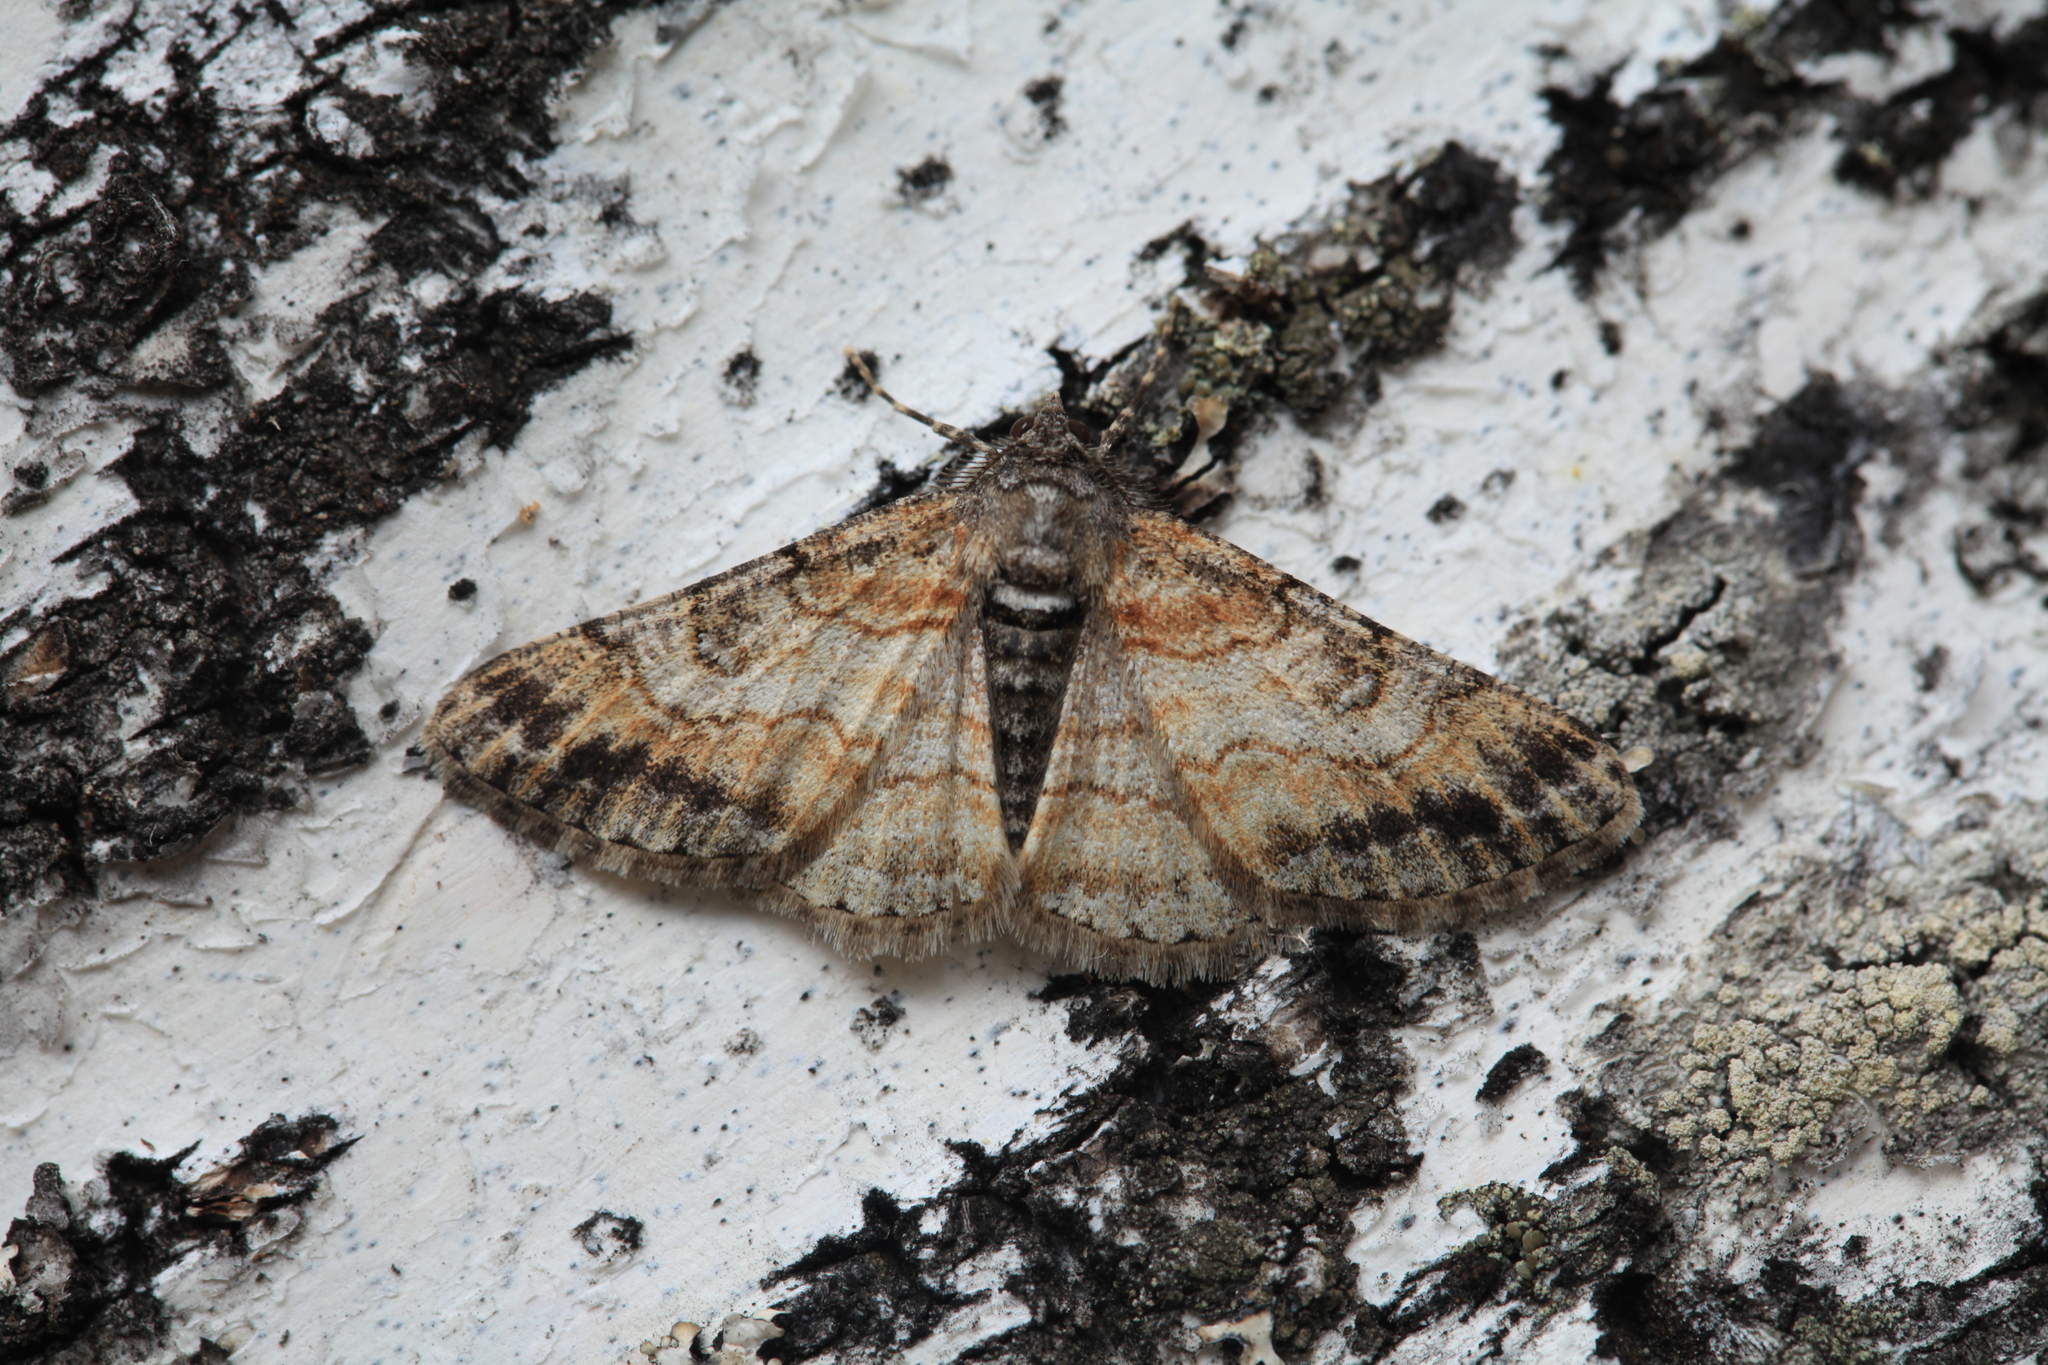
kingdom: Animalia
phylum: Arthropoda
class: Insecta
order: Lepidoptera
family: Geometridae
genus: Cleora
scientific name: Cleora cinctaria
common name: Ringed carpet
